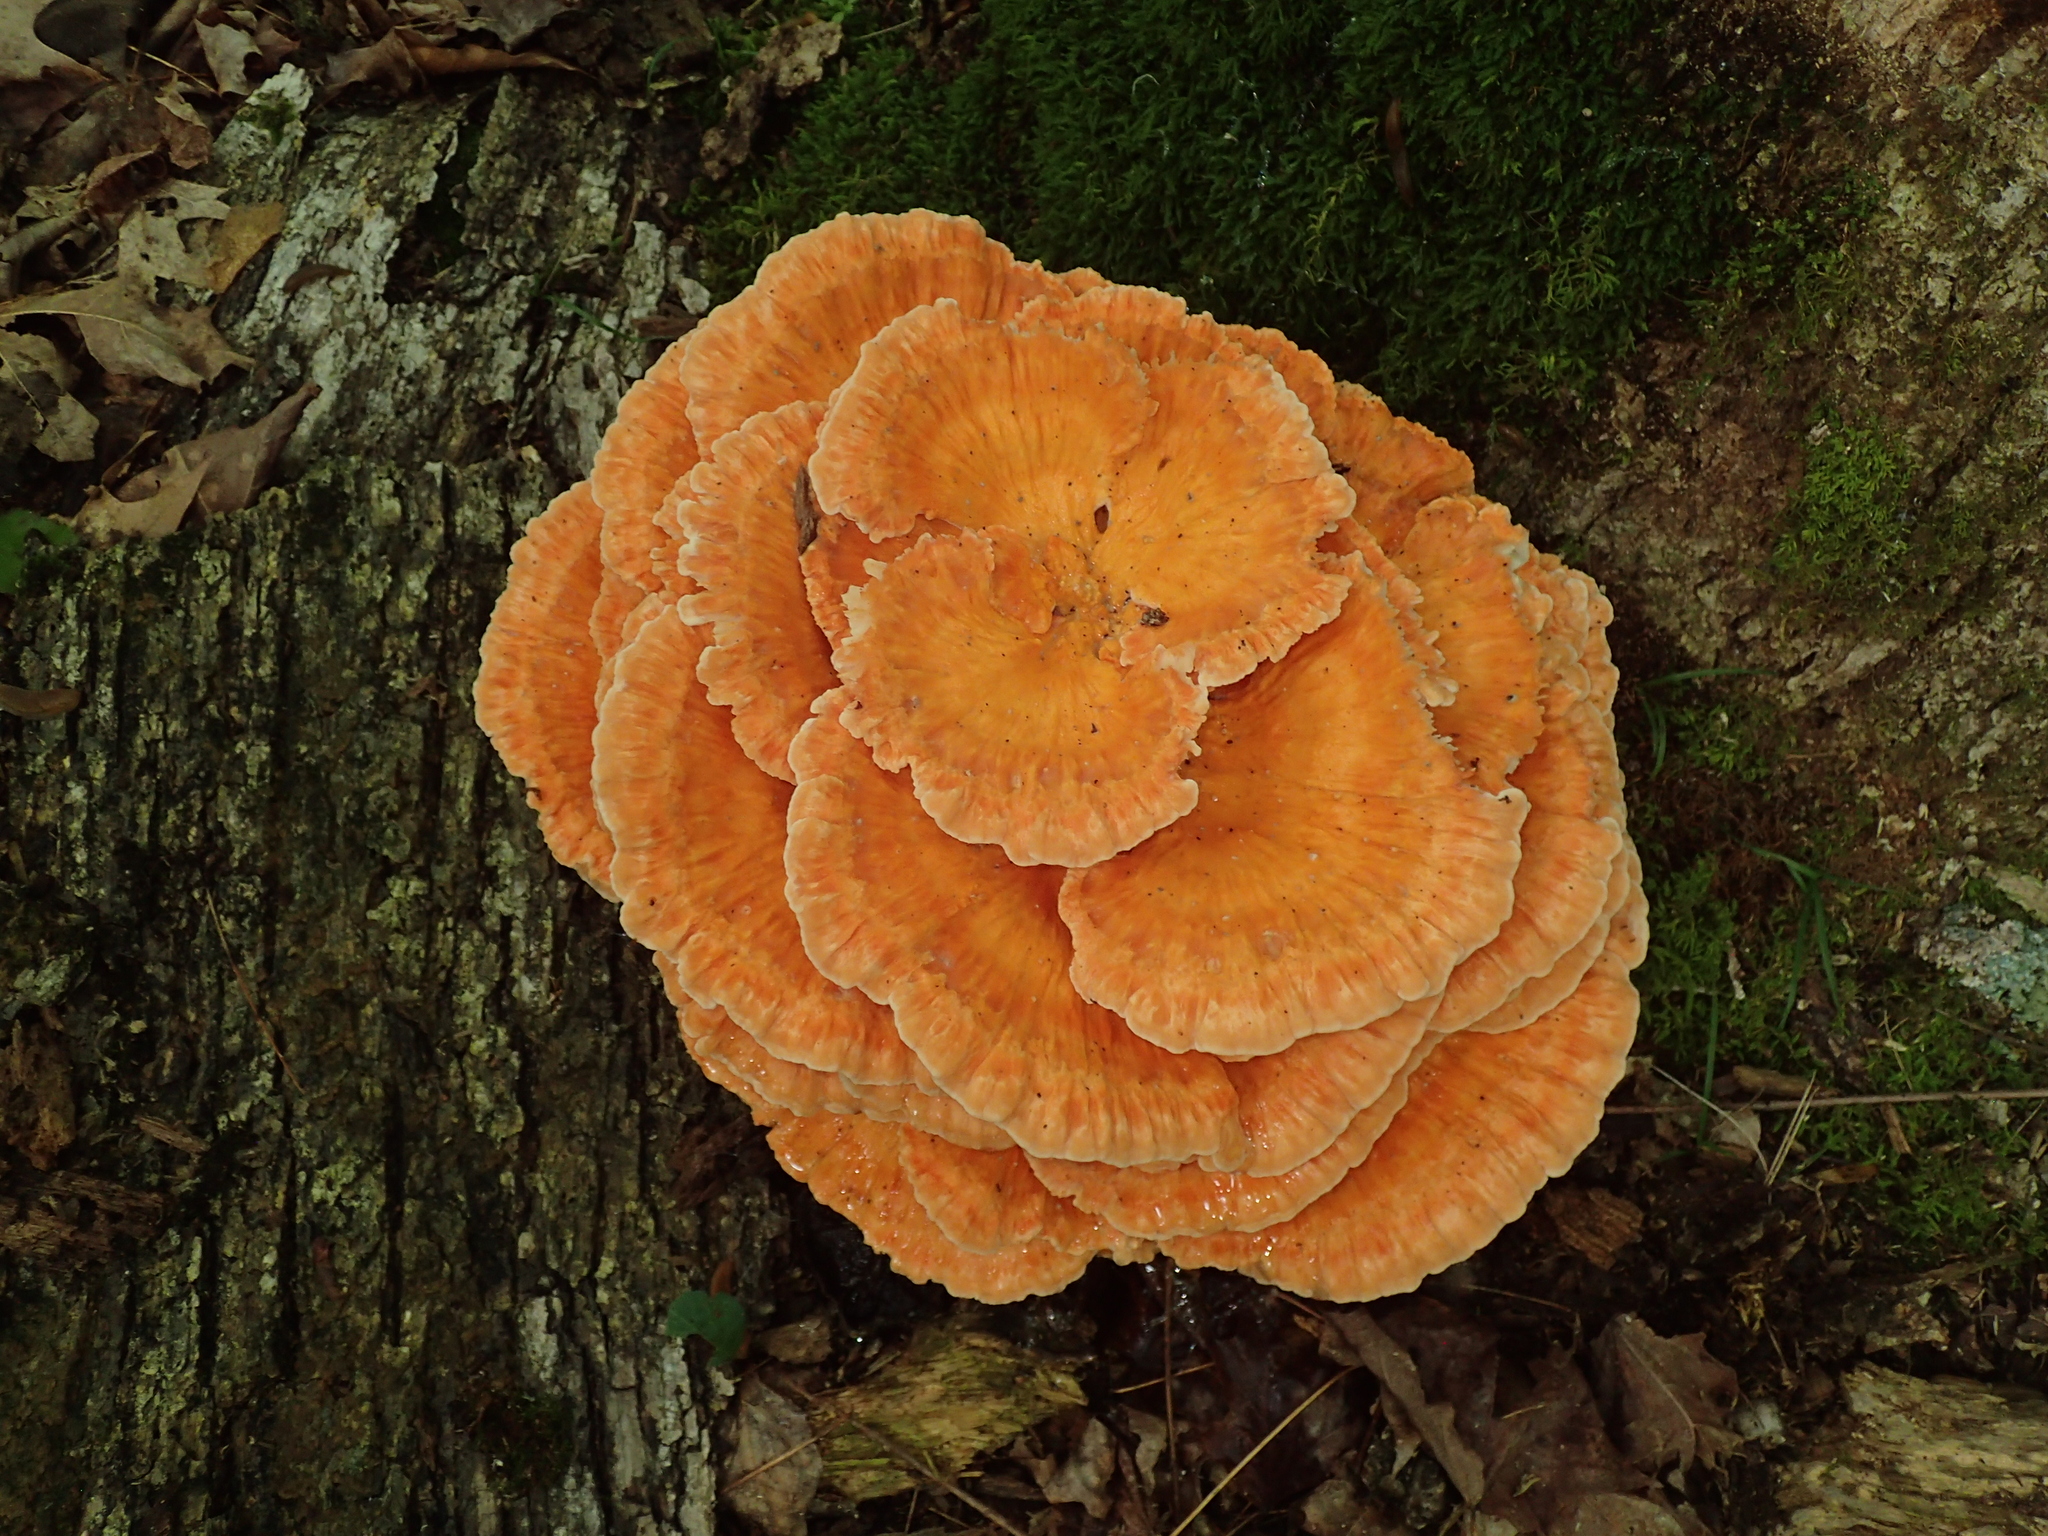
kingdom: Fungi
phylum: Basidiomycota
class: Agaricomycetes
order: Polyporales
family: Laetiporaceae
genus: Laetiporus
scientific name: Laetiporus sulphureus
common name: Chicken of the woods
